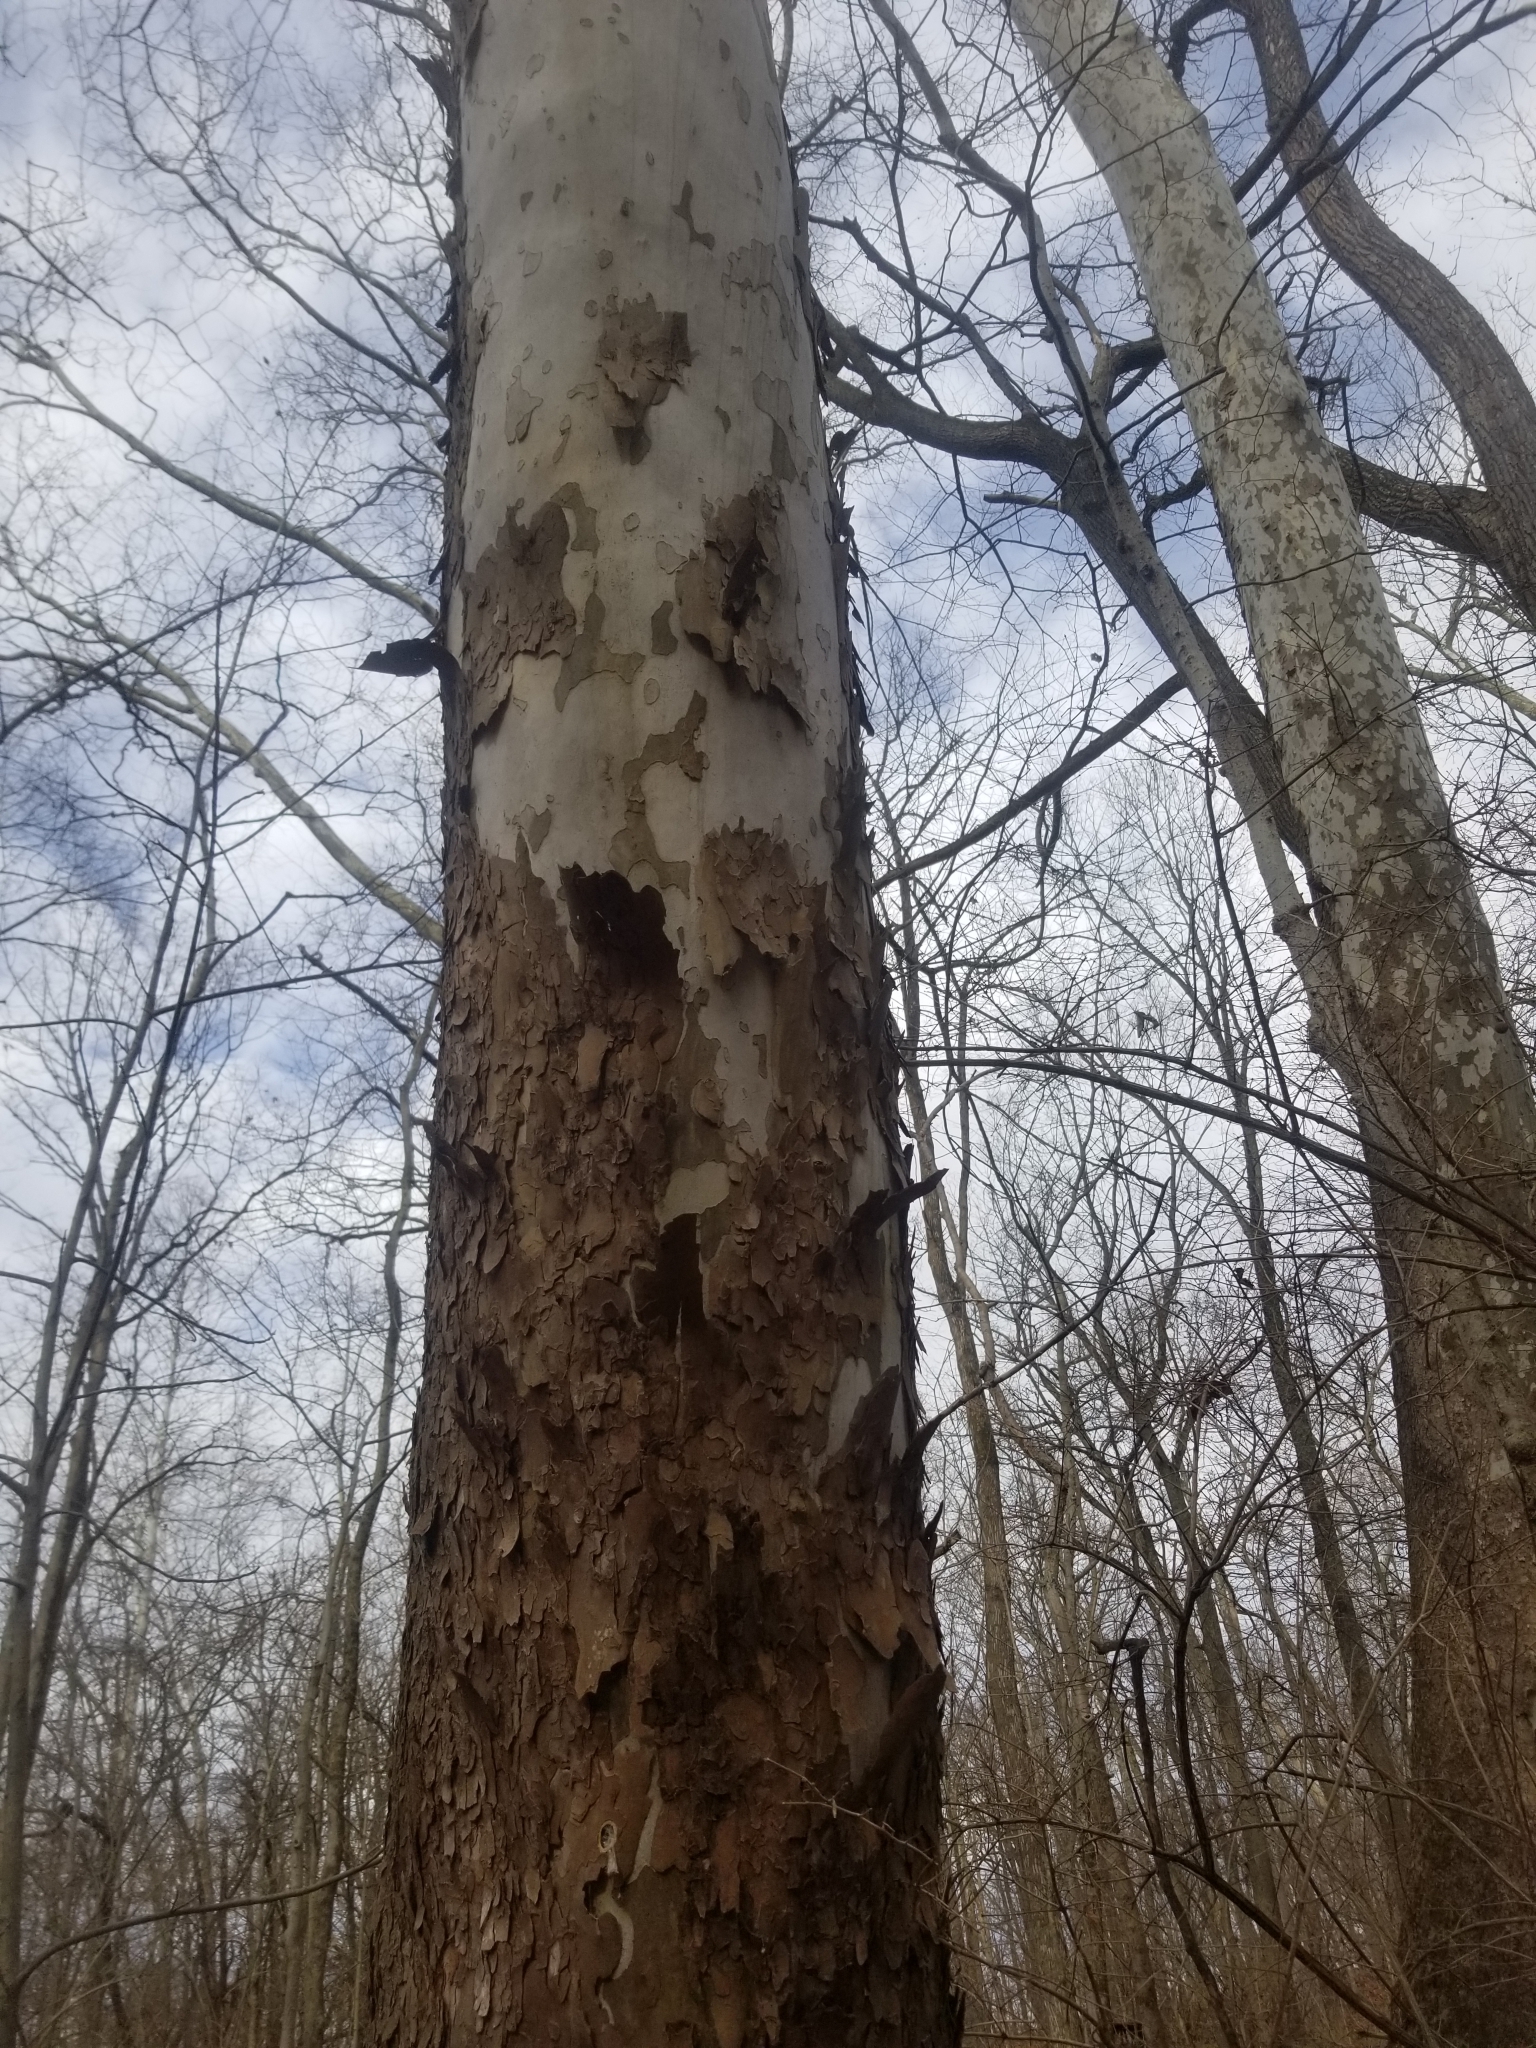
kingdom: Plantae
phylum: Tracheophyta
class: Magnoliopsida
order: Proteales
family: Platanaceae
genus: Platanus
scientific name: Platanus occidentalis
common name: American sycamore
